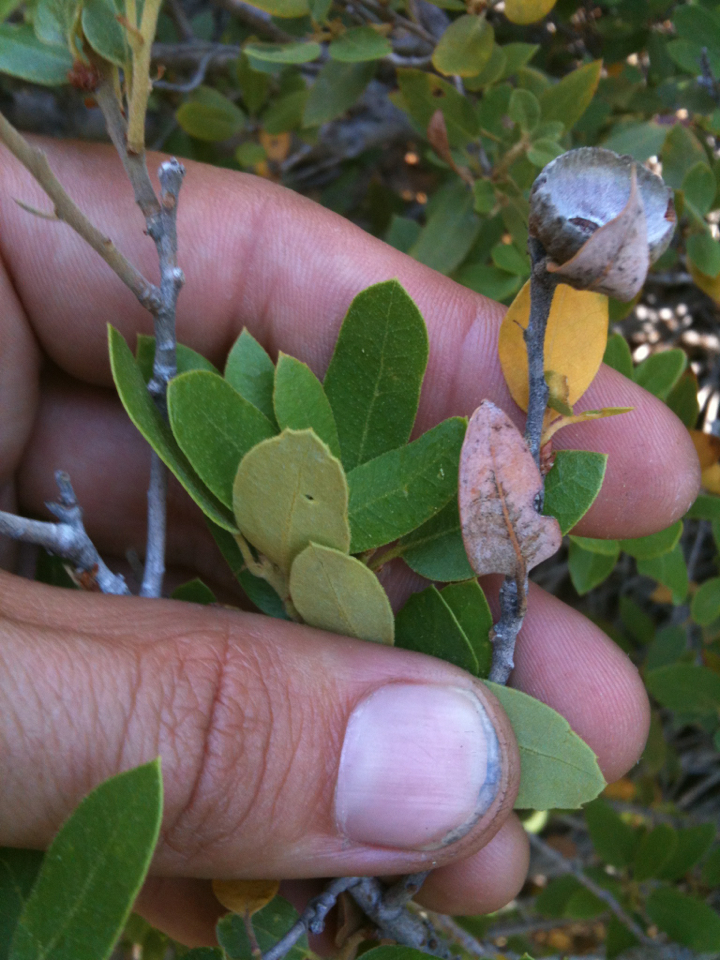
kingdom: Plantae
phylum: Tracheophyta
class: Magnoliopsida
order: Fagales
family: Fagaceae
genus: Quercus
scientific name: Quercus vacciniifolia
